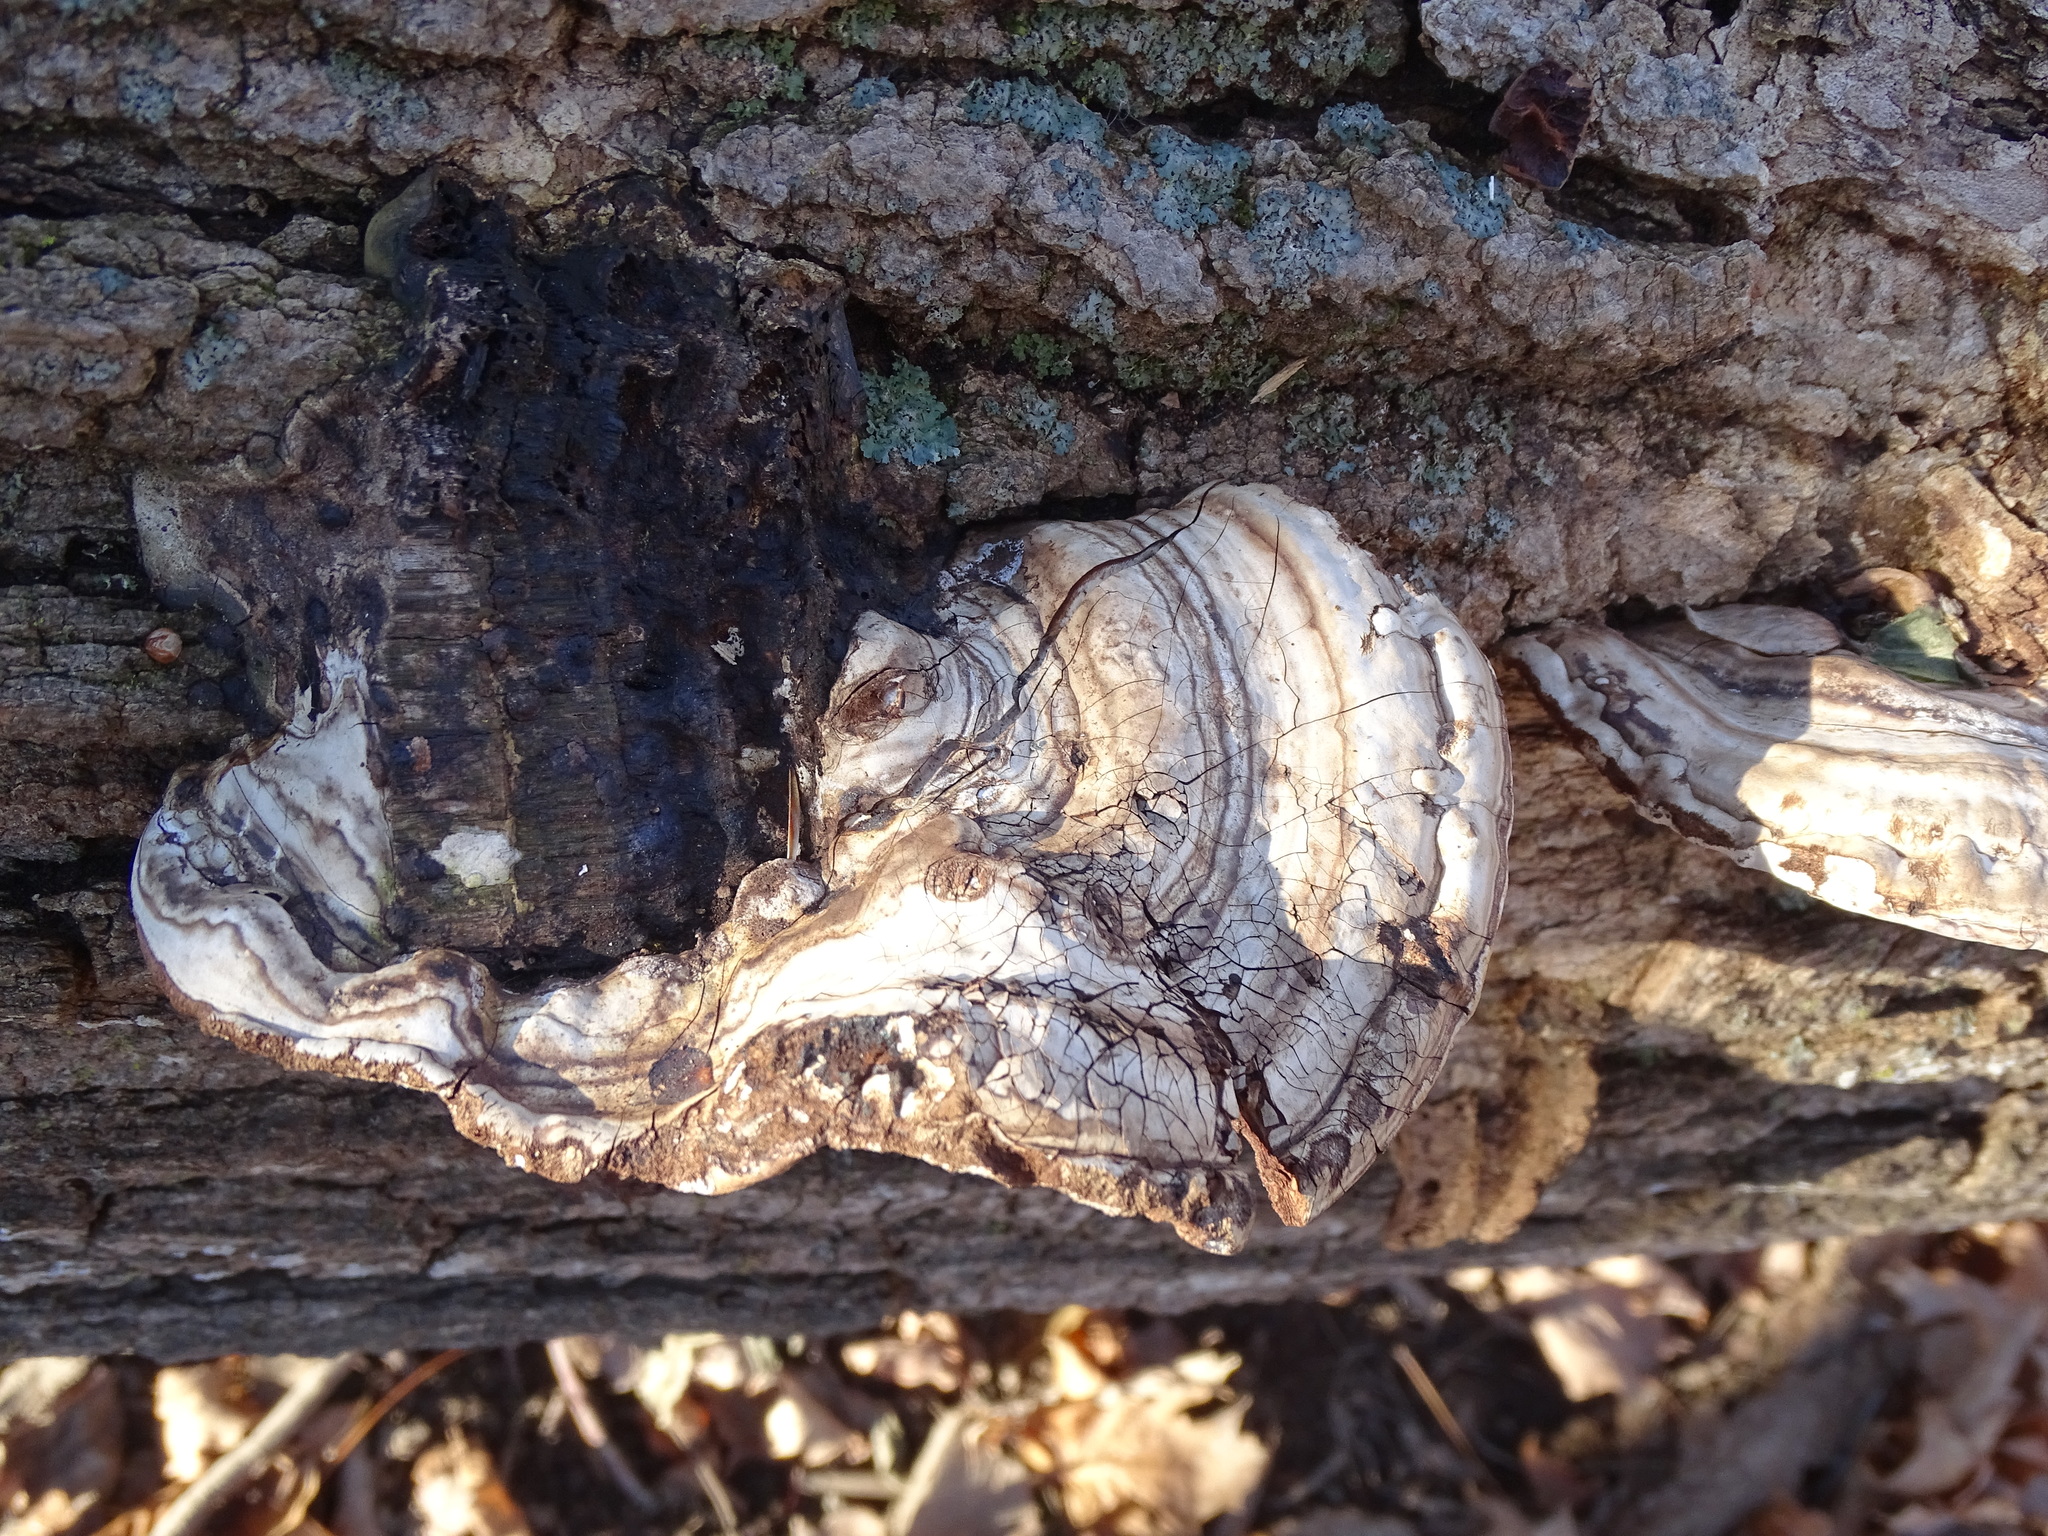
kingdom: Fungi
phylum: Basidiomycota
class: Agaricomycetes
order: Polyporales
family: Polyporaceae
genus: Ganoderma
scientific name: Ganoderma applanatum
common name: Artist's bracket
